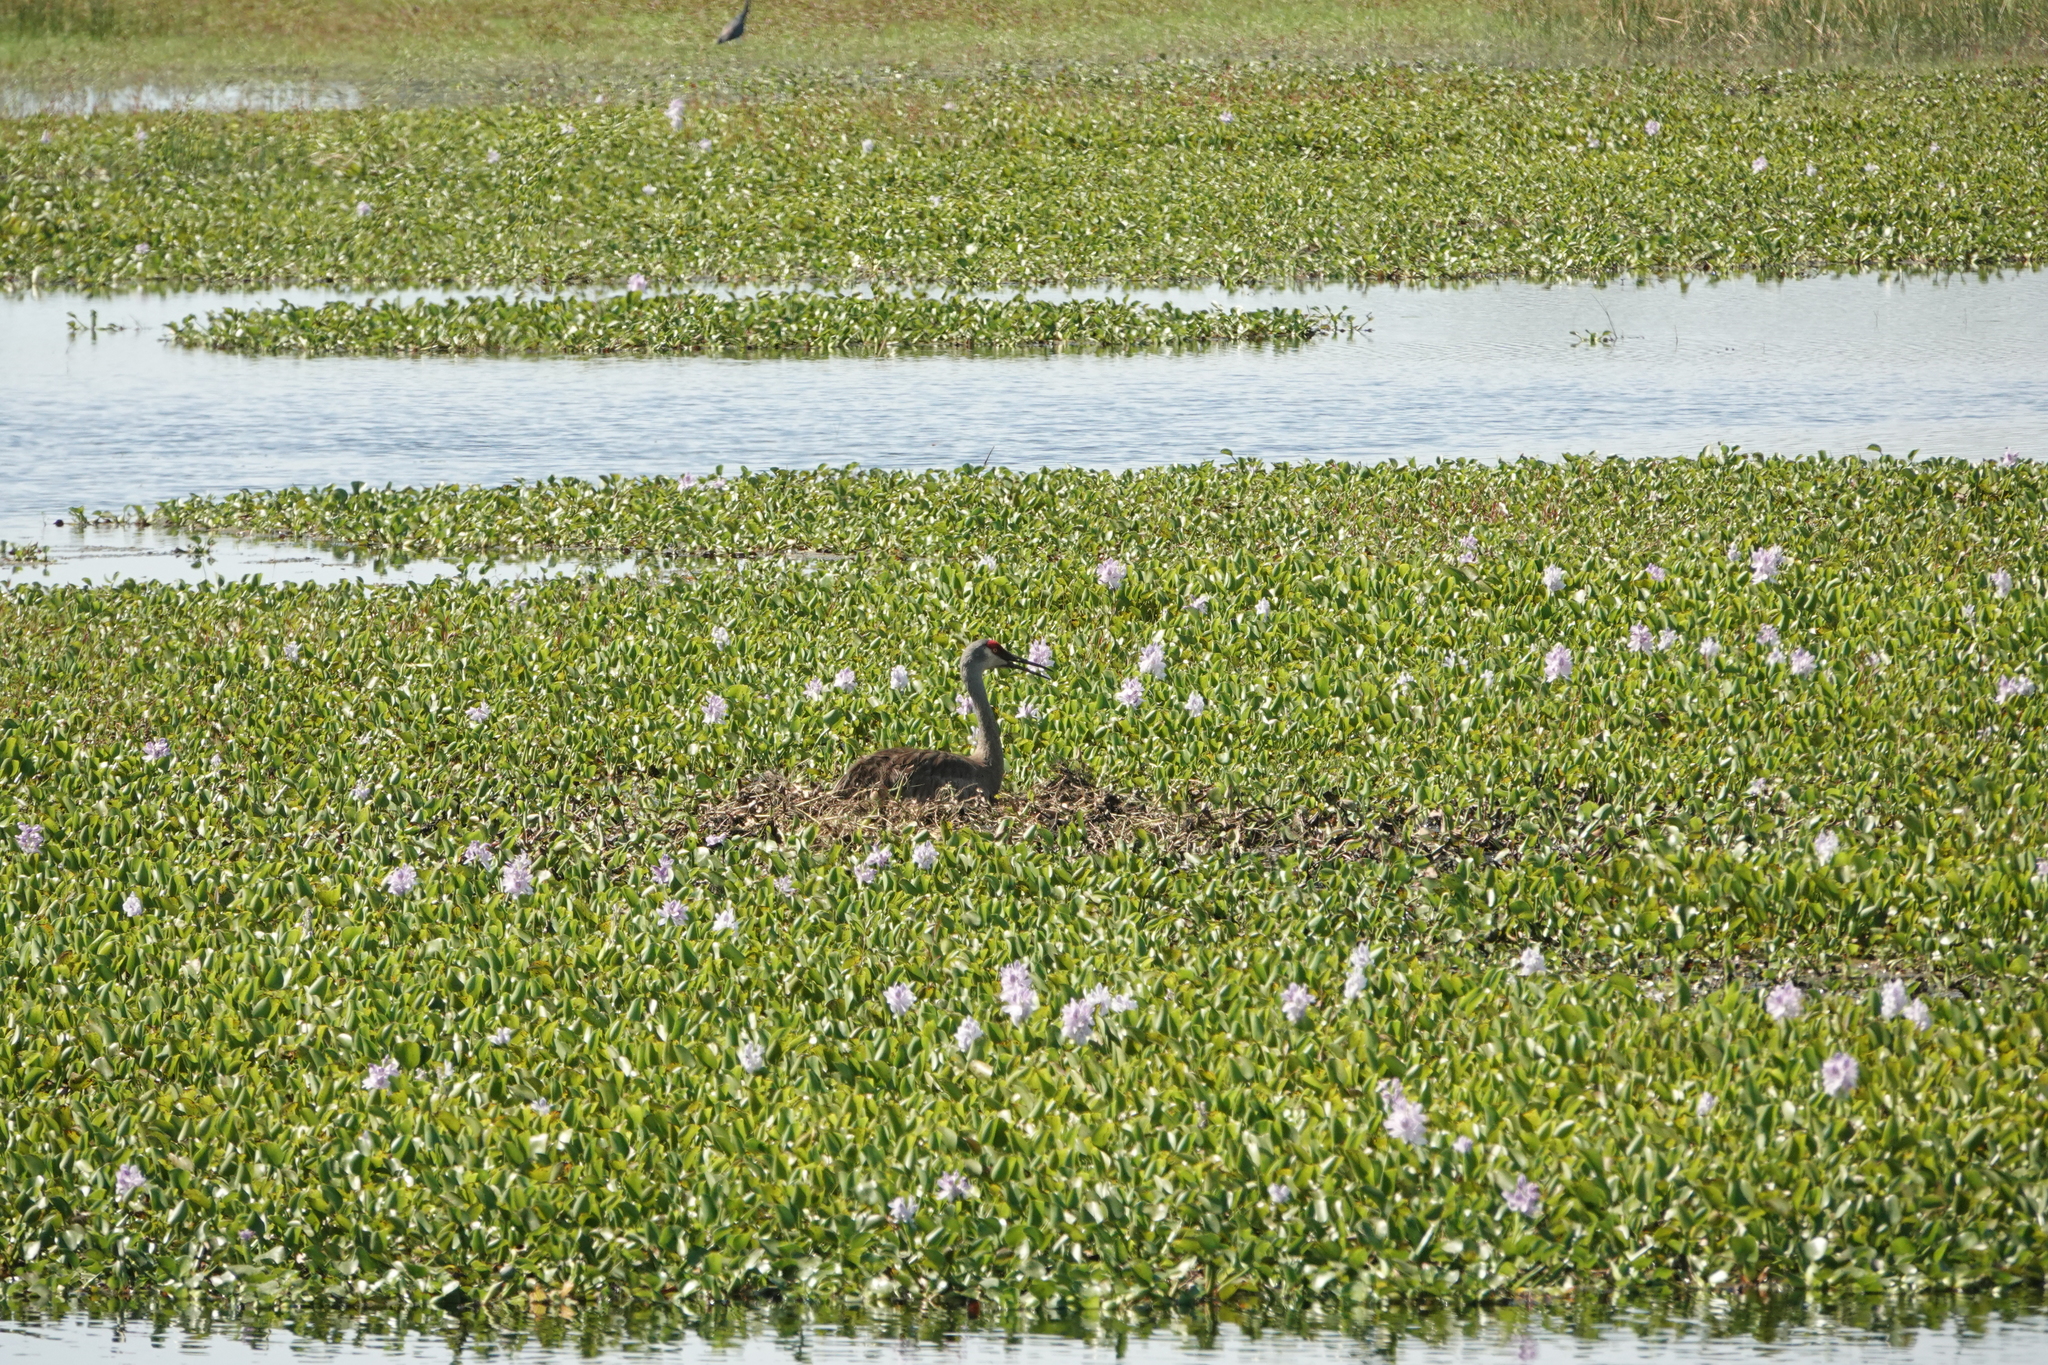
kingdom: Plantae
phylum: Tracheophyta
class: Liliopsida
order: Commelinales
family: Pontederiaceae
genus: Pontederia
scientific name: Pontederia crassipes
